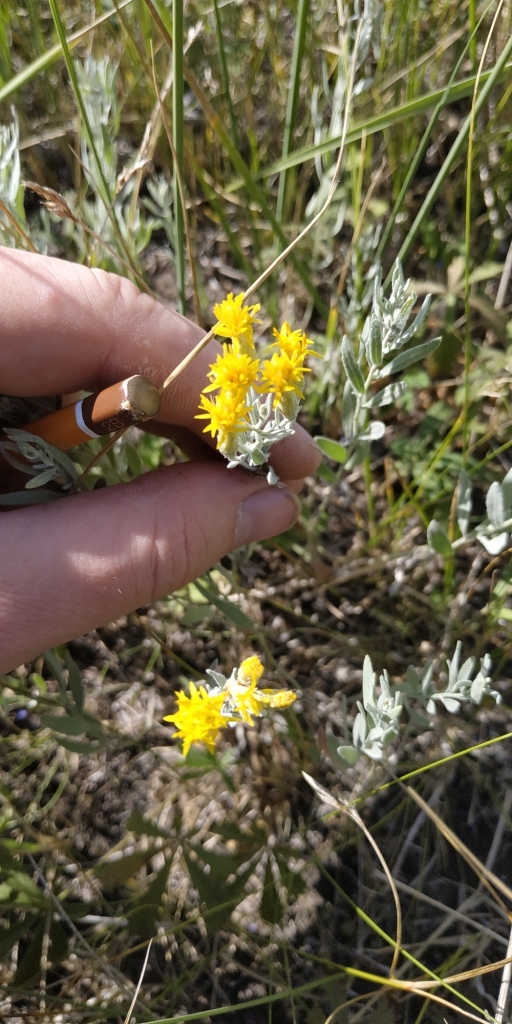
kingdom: Plantae
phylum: Tracheophyta
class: Magnoliopsida
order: Asterales
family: Asteraceae
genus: Galatella
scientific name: Galatella villosa
